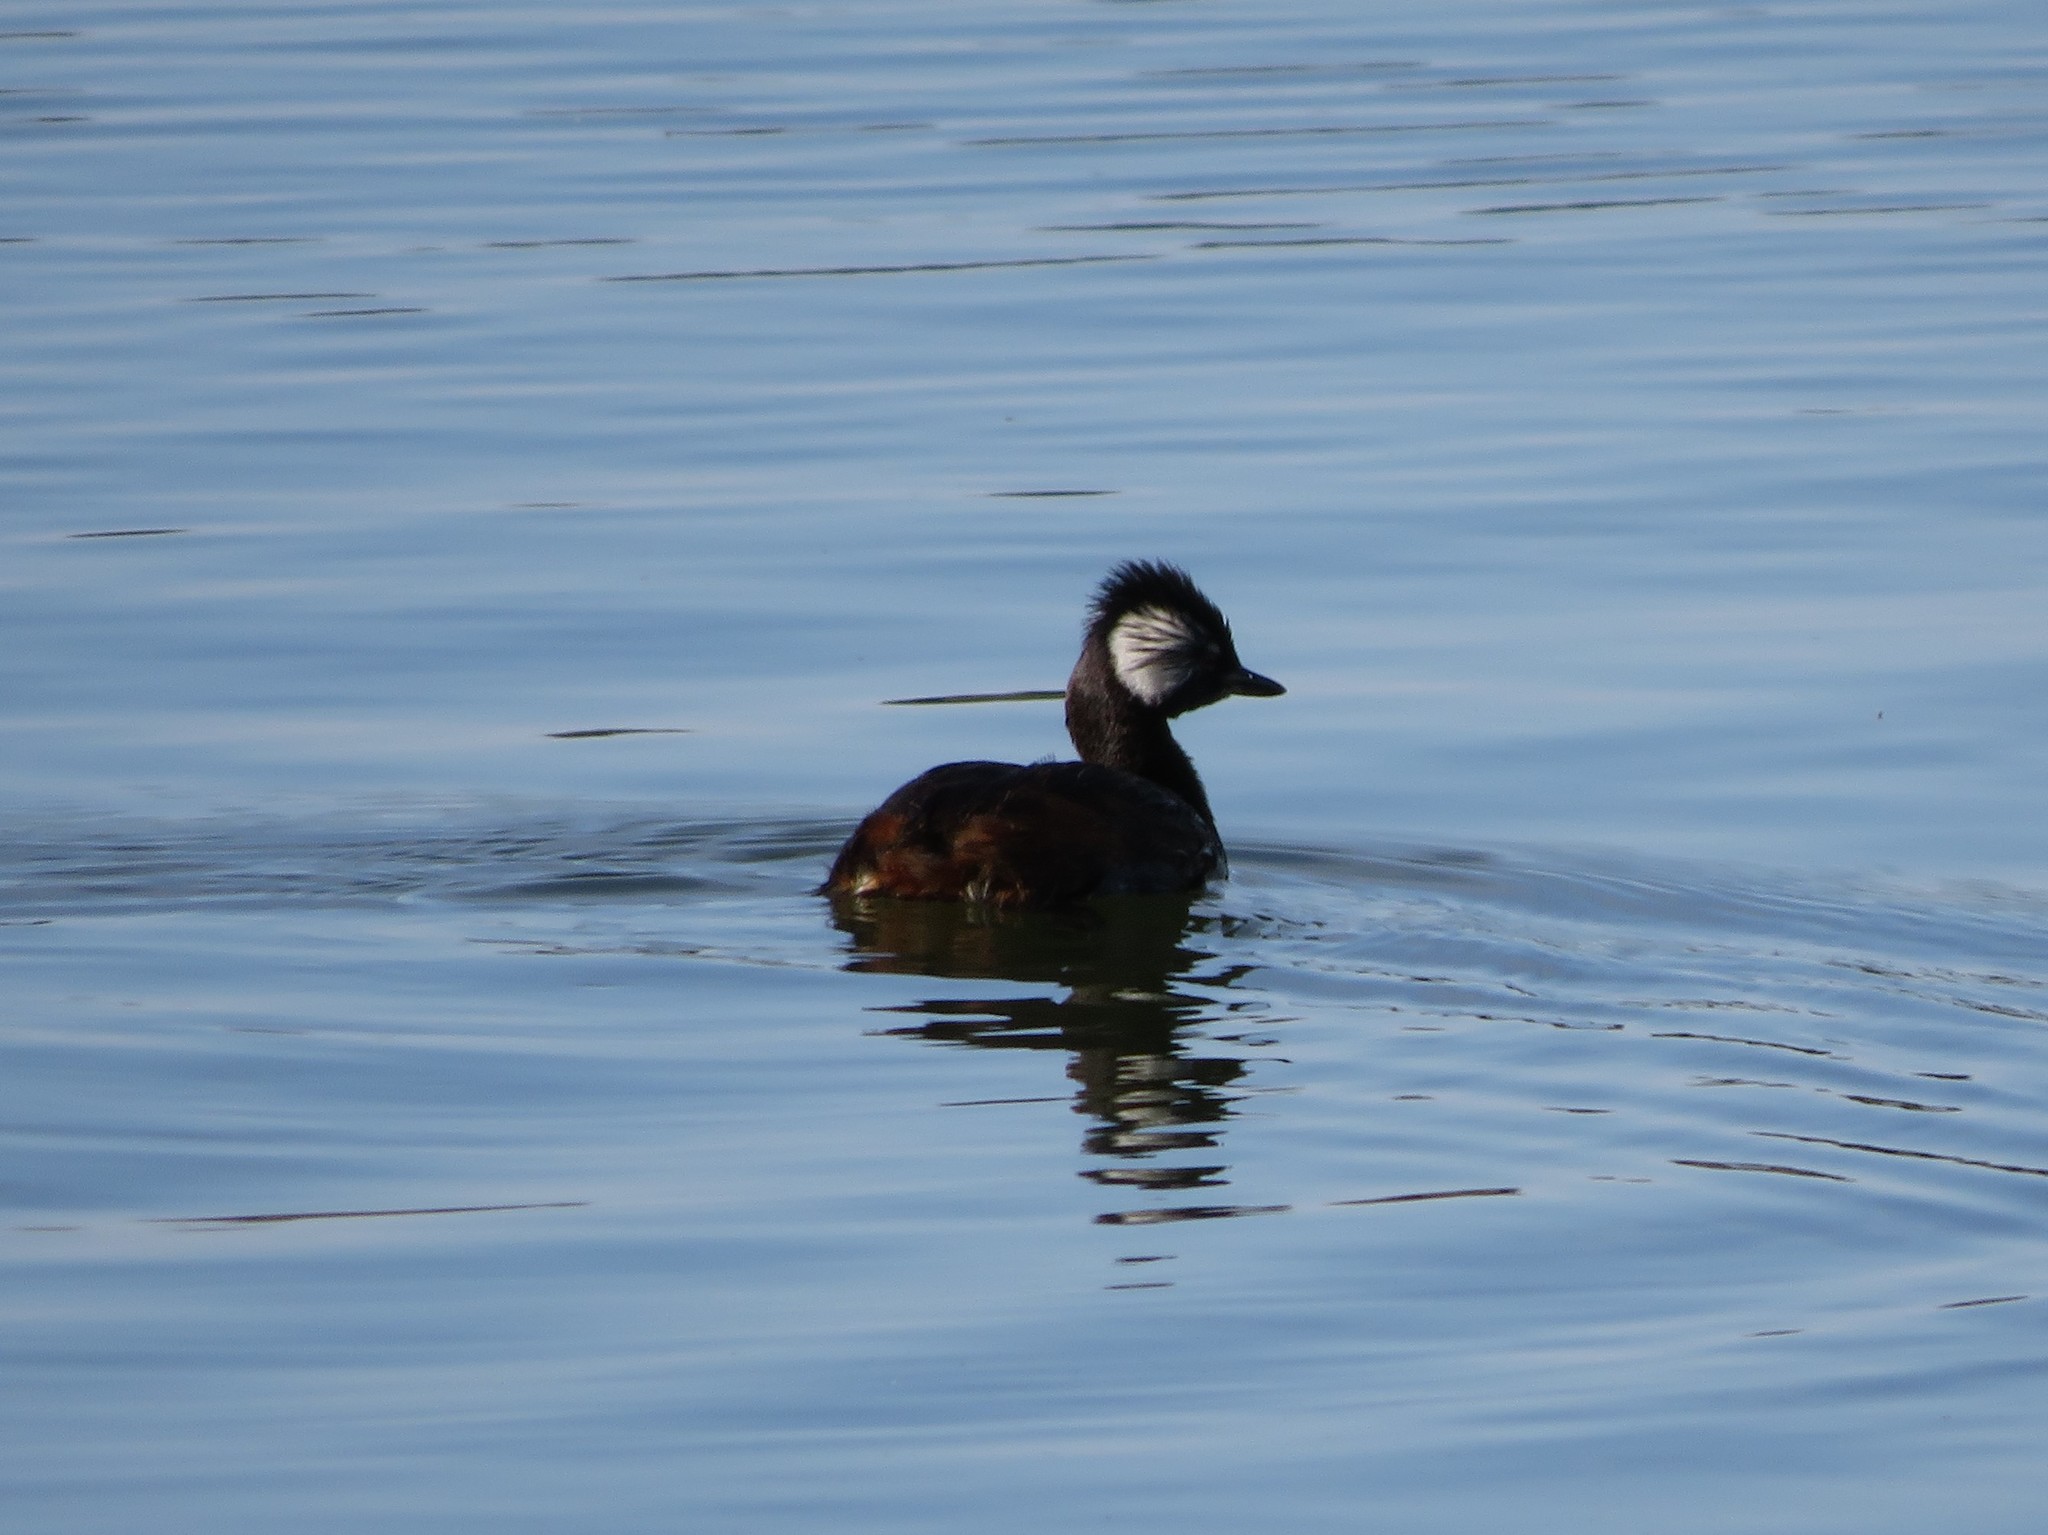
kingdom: Animalia
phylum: Chordata
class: Aves
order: Podicipediformes
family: Podicipedidae
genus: Rollandia
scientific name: Rollandia rolland
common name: White-tufted grebe
